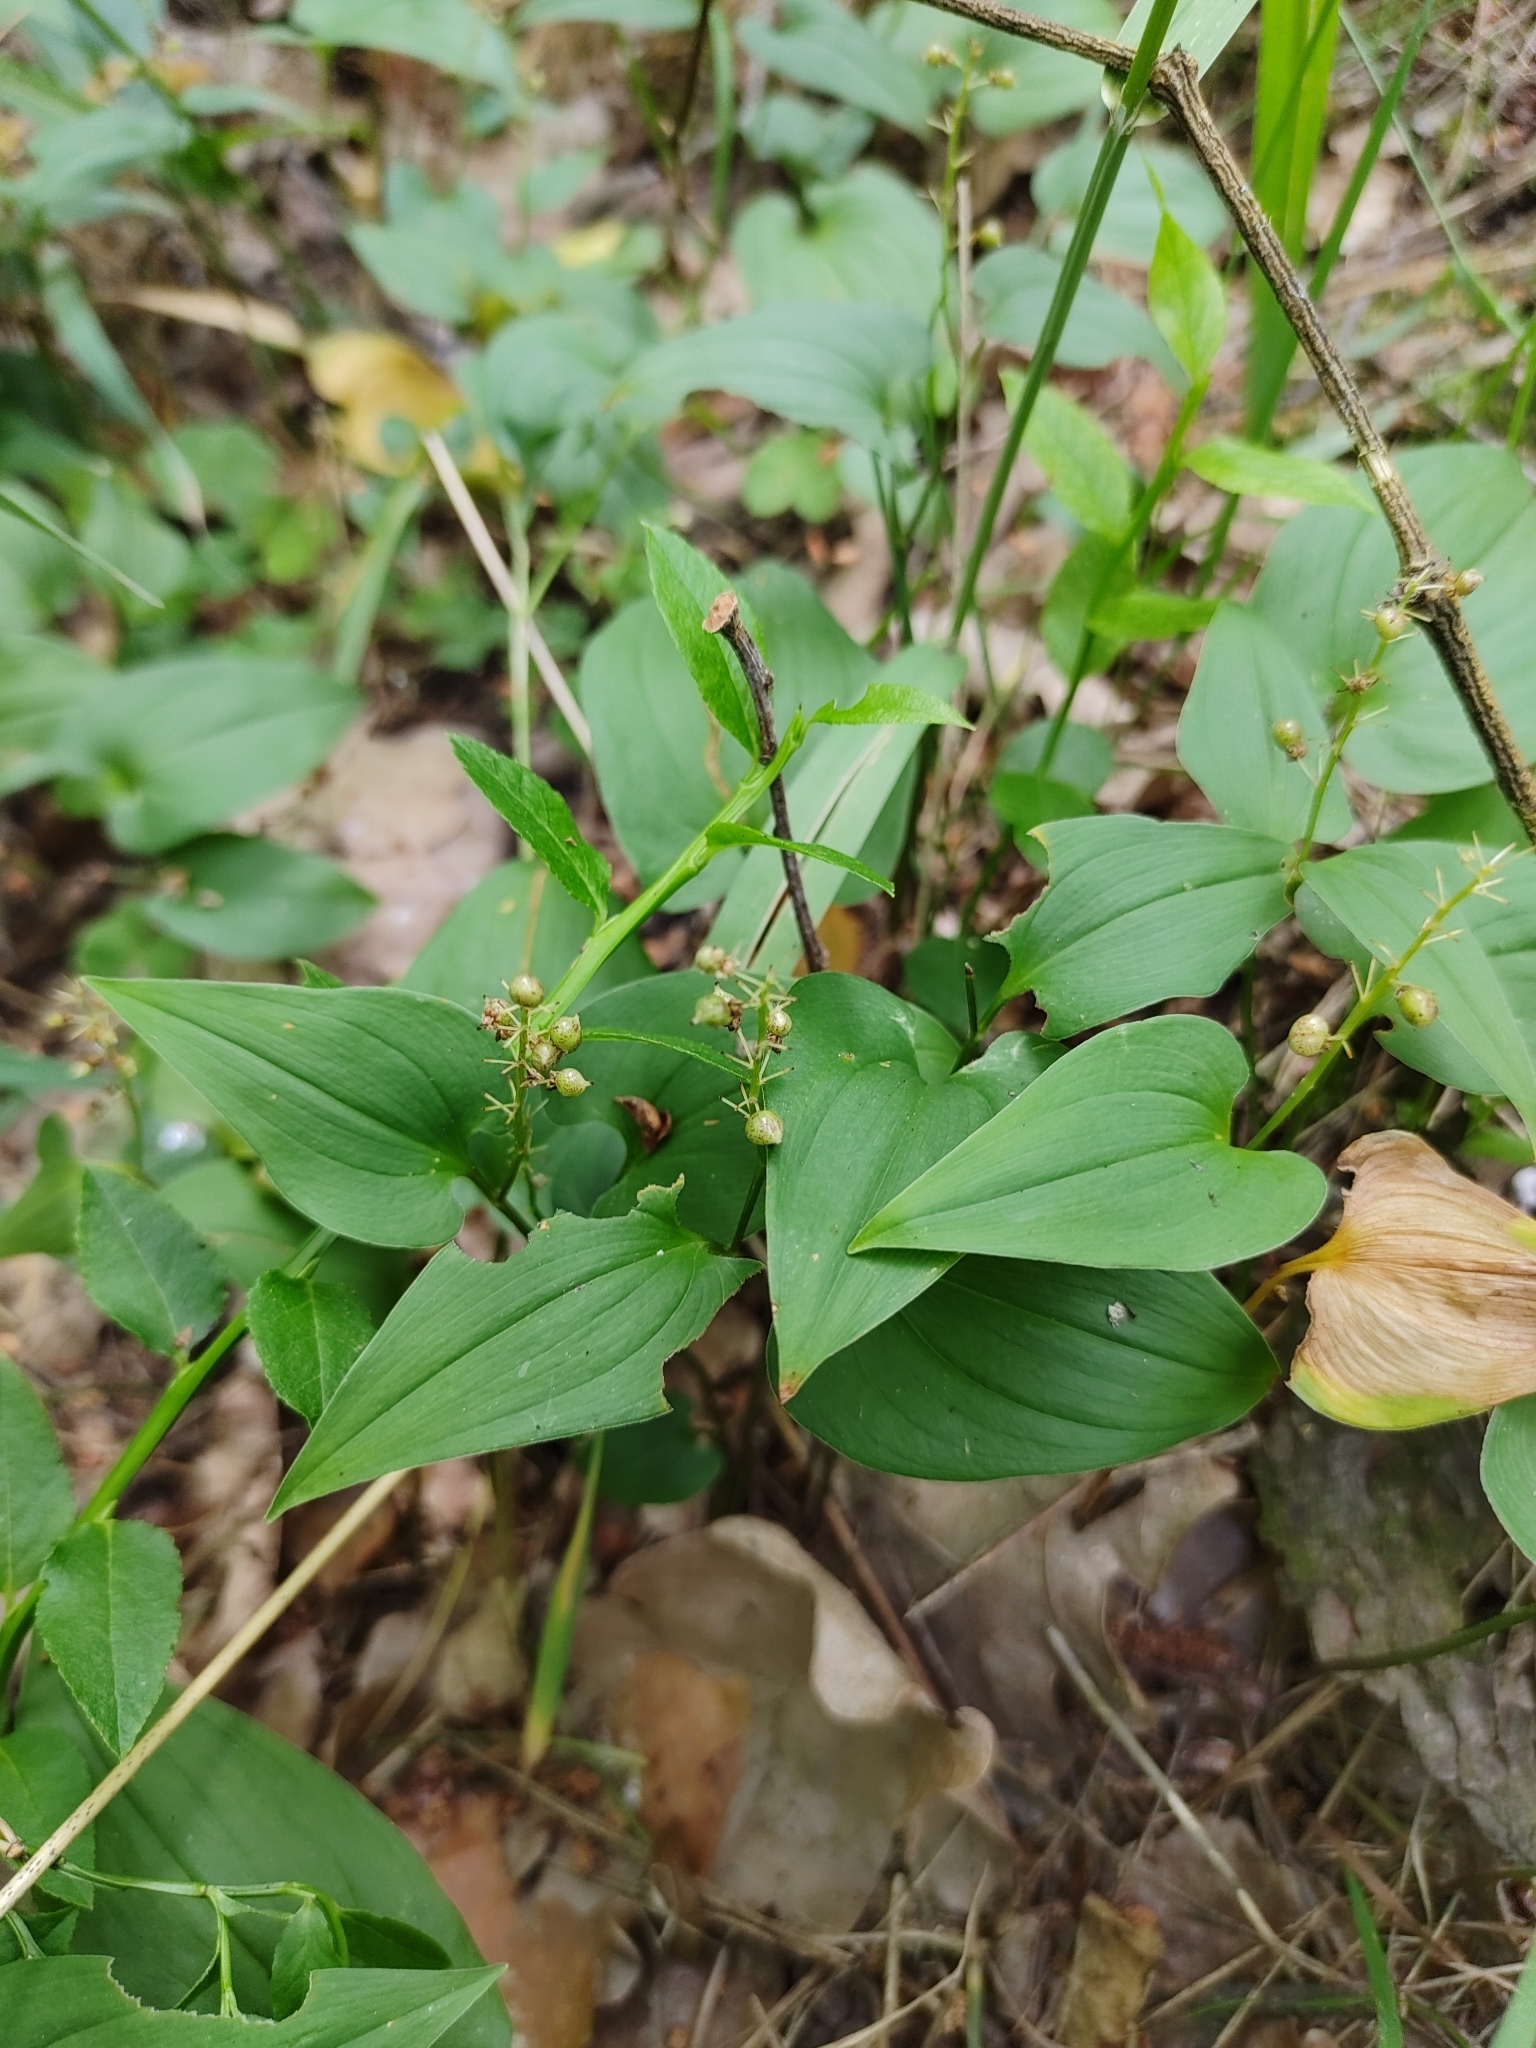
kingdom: Plantae
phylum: Tracheophyta
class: Liliopsida
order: Asparagales
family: Asparagaceae
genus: Maianthemum
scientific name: Maianthemum bifolium
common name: May lily
